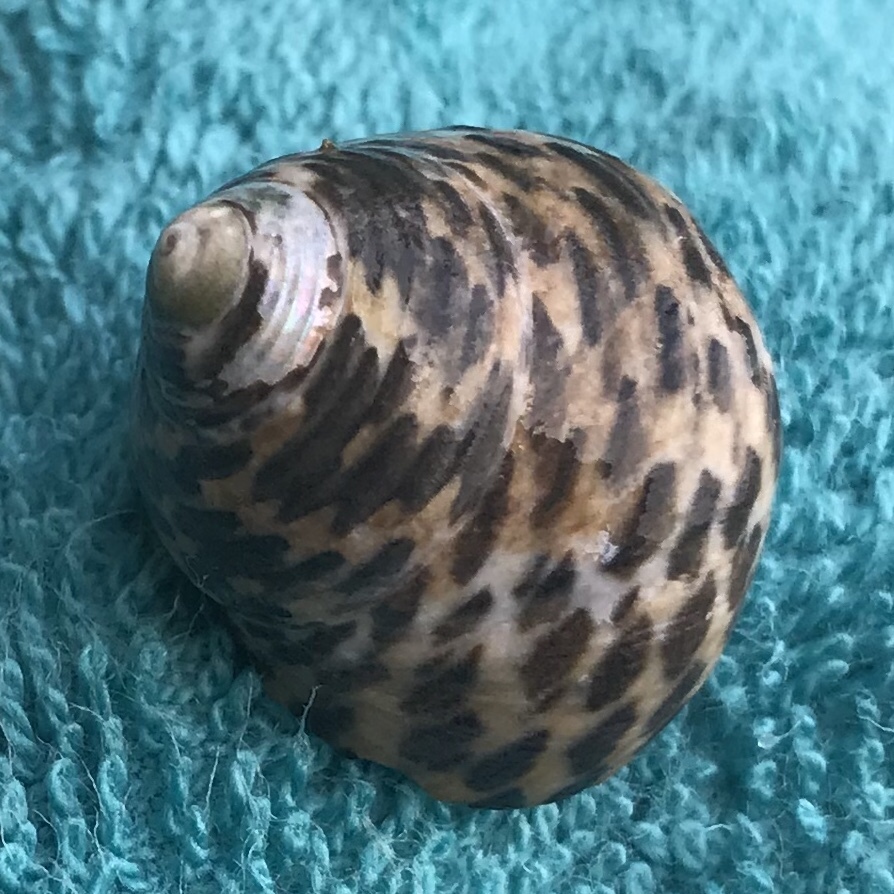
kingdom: Animalia
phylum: Mollusca
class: Gastropoda
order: Trochida
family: Trochidae
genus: Phorcus
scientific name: Phorcus turbinatus
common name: Turbinate monodont
